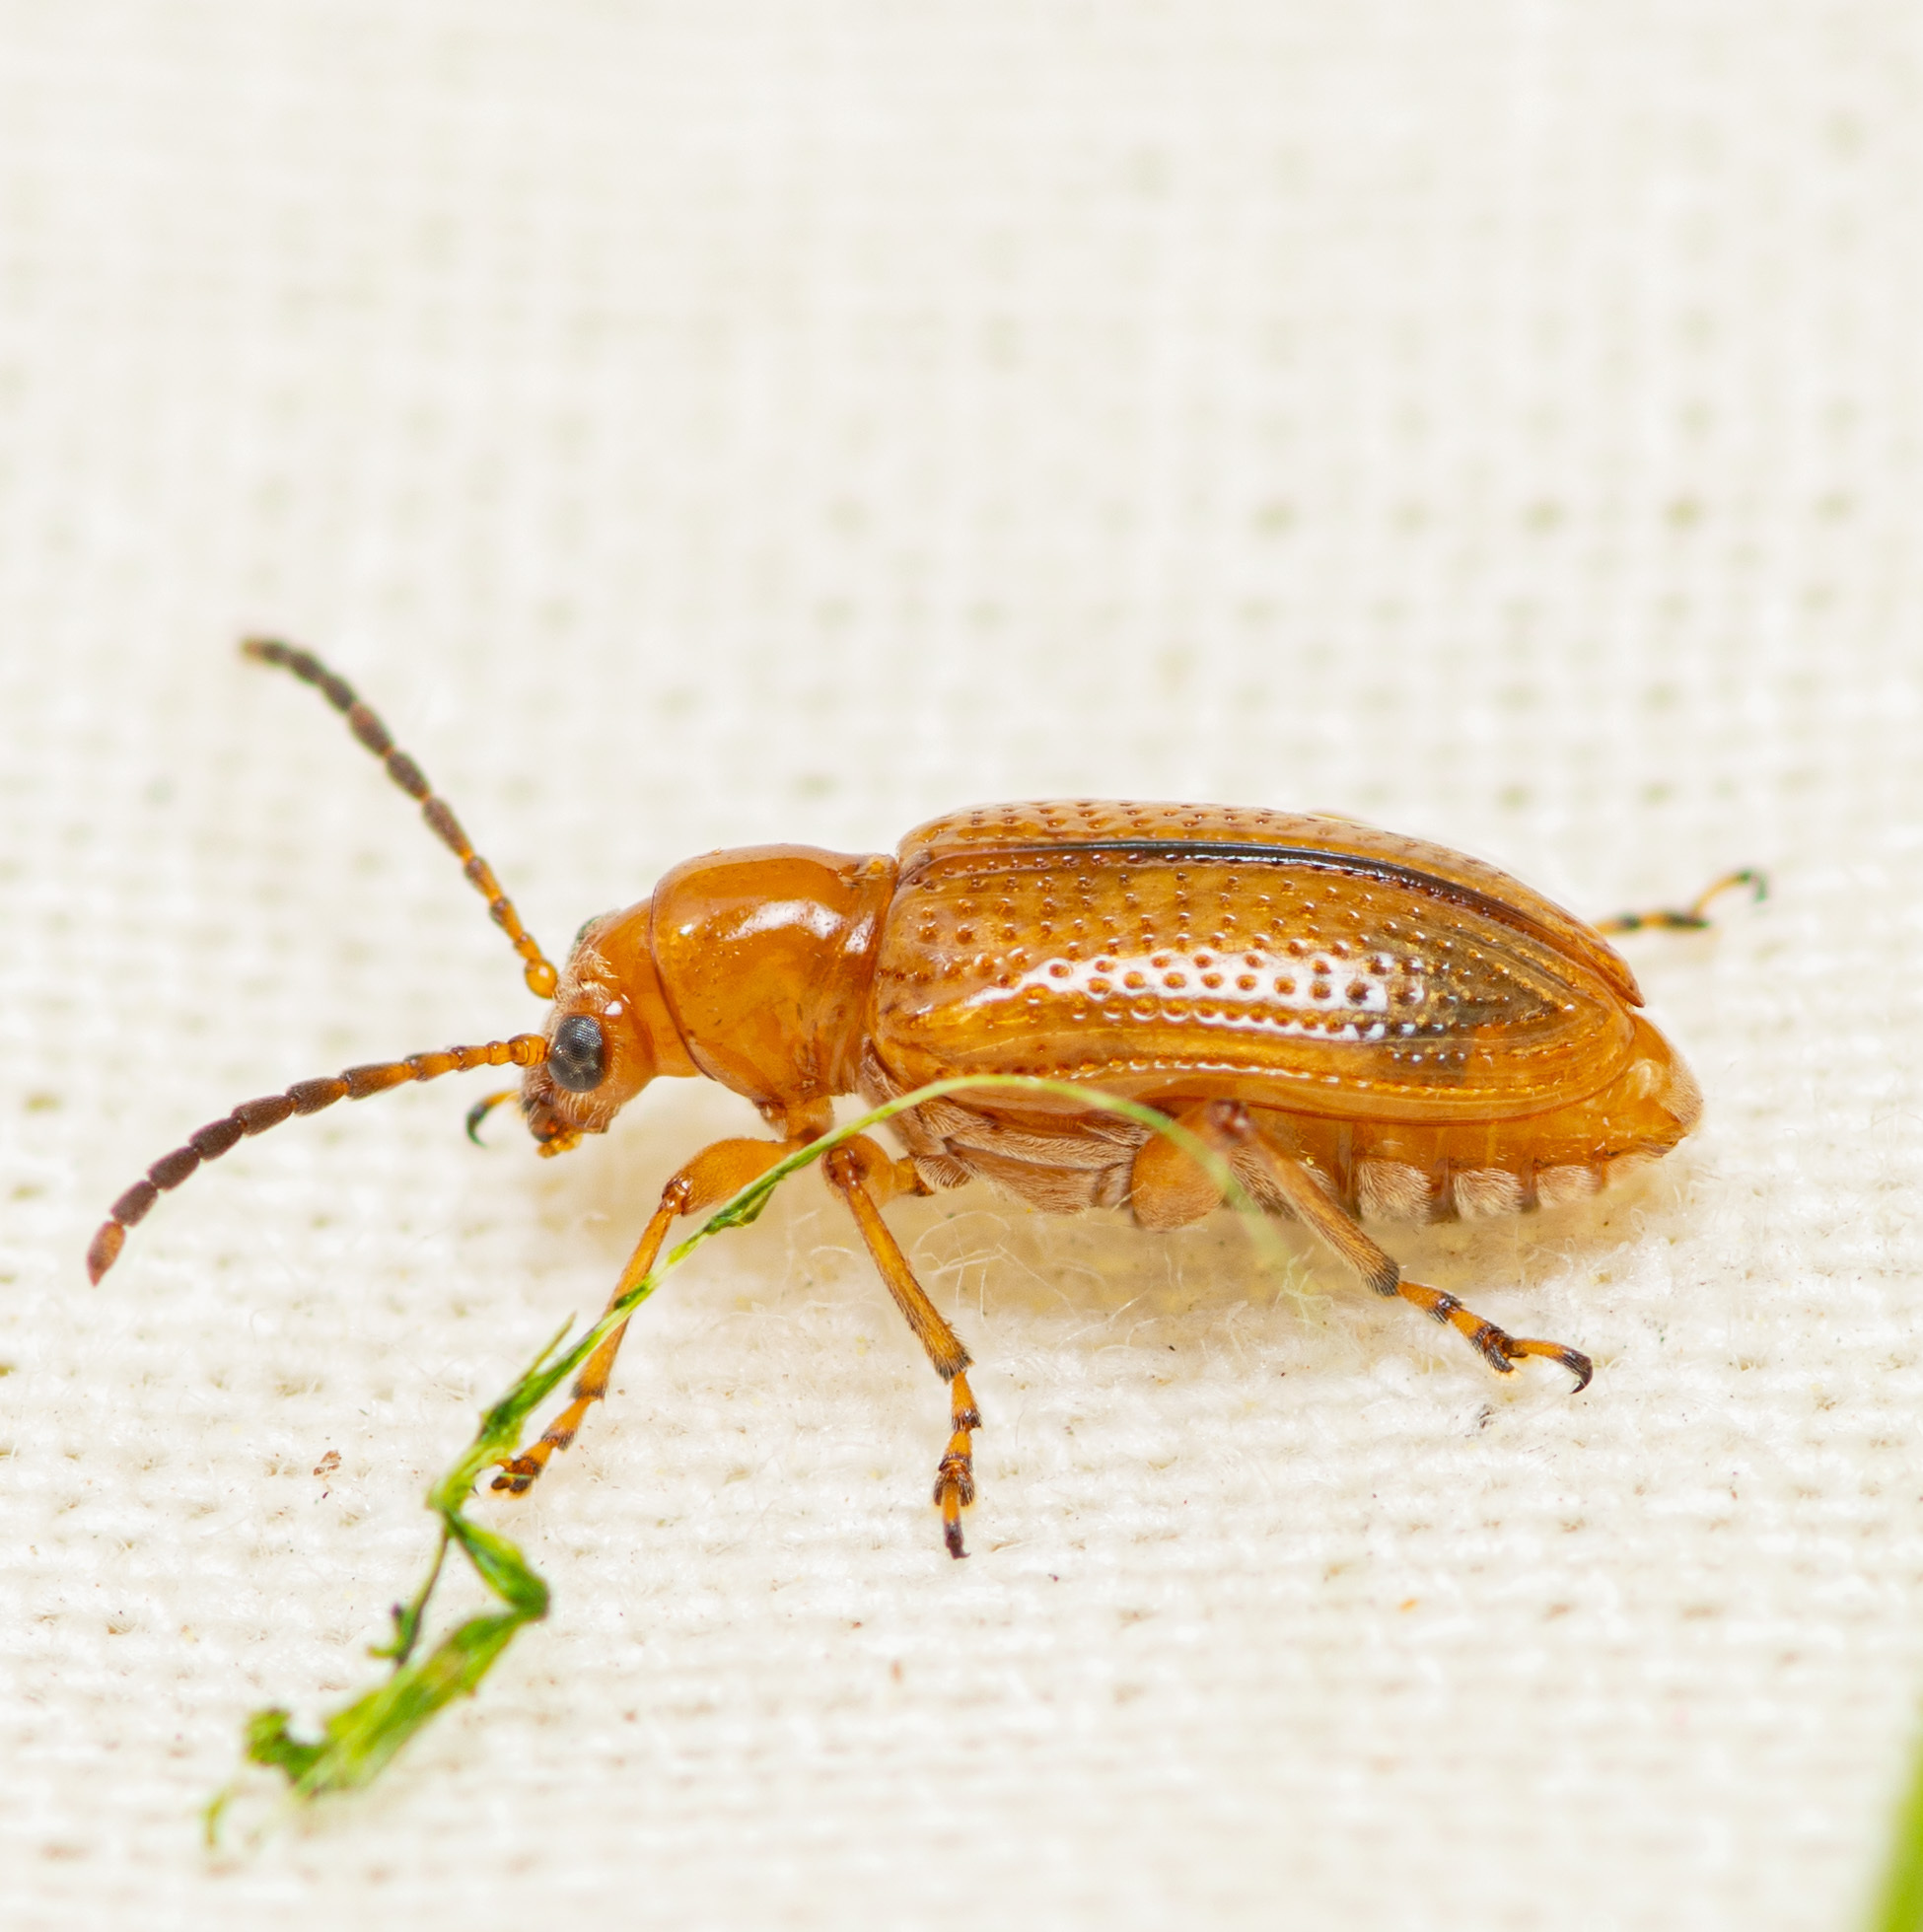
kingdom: Animalia
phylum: Arthropoda
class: Insecta
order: Coleoptera
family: Chrysomelidae
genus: Neolema
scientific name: Neolema jacobina
